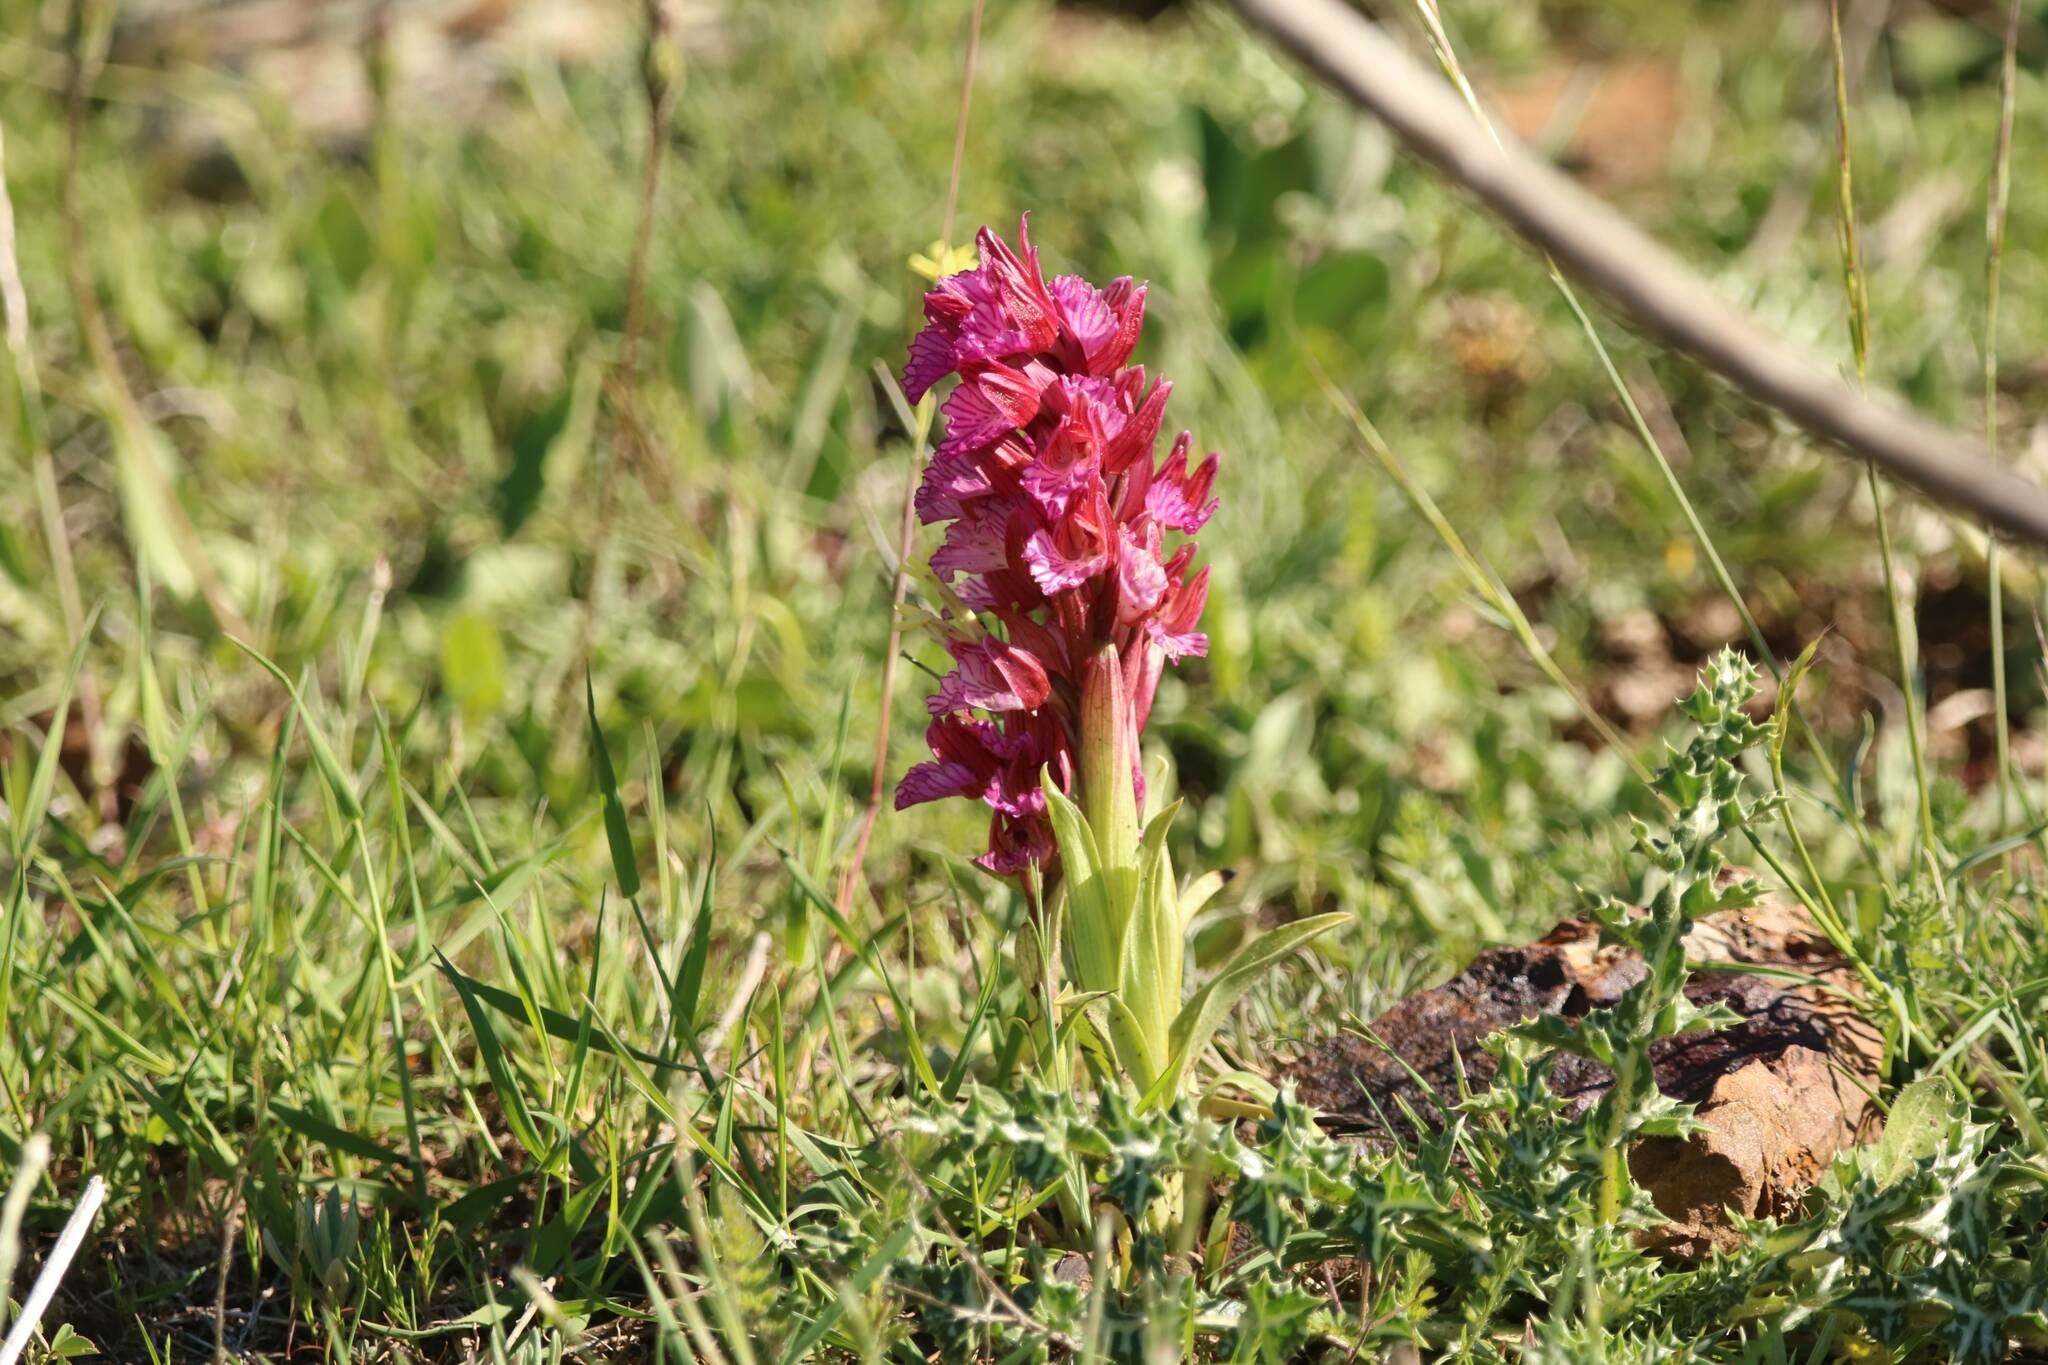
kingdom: Plantae
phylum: Tracheophyta
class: Liliopsida
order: Asparagales
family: Orchidaceae
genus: Anacamptis
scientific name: Anacamptis papilionacea
